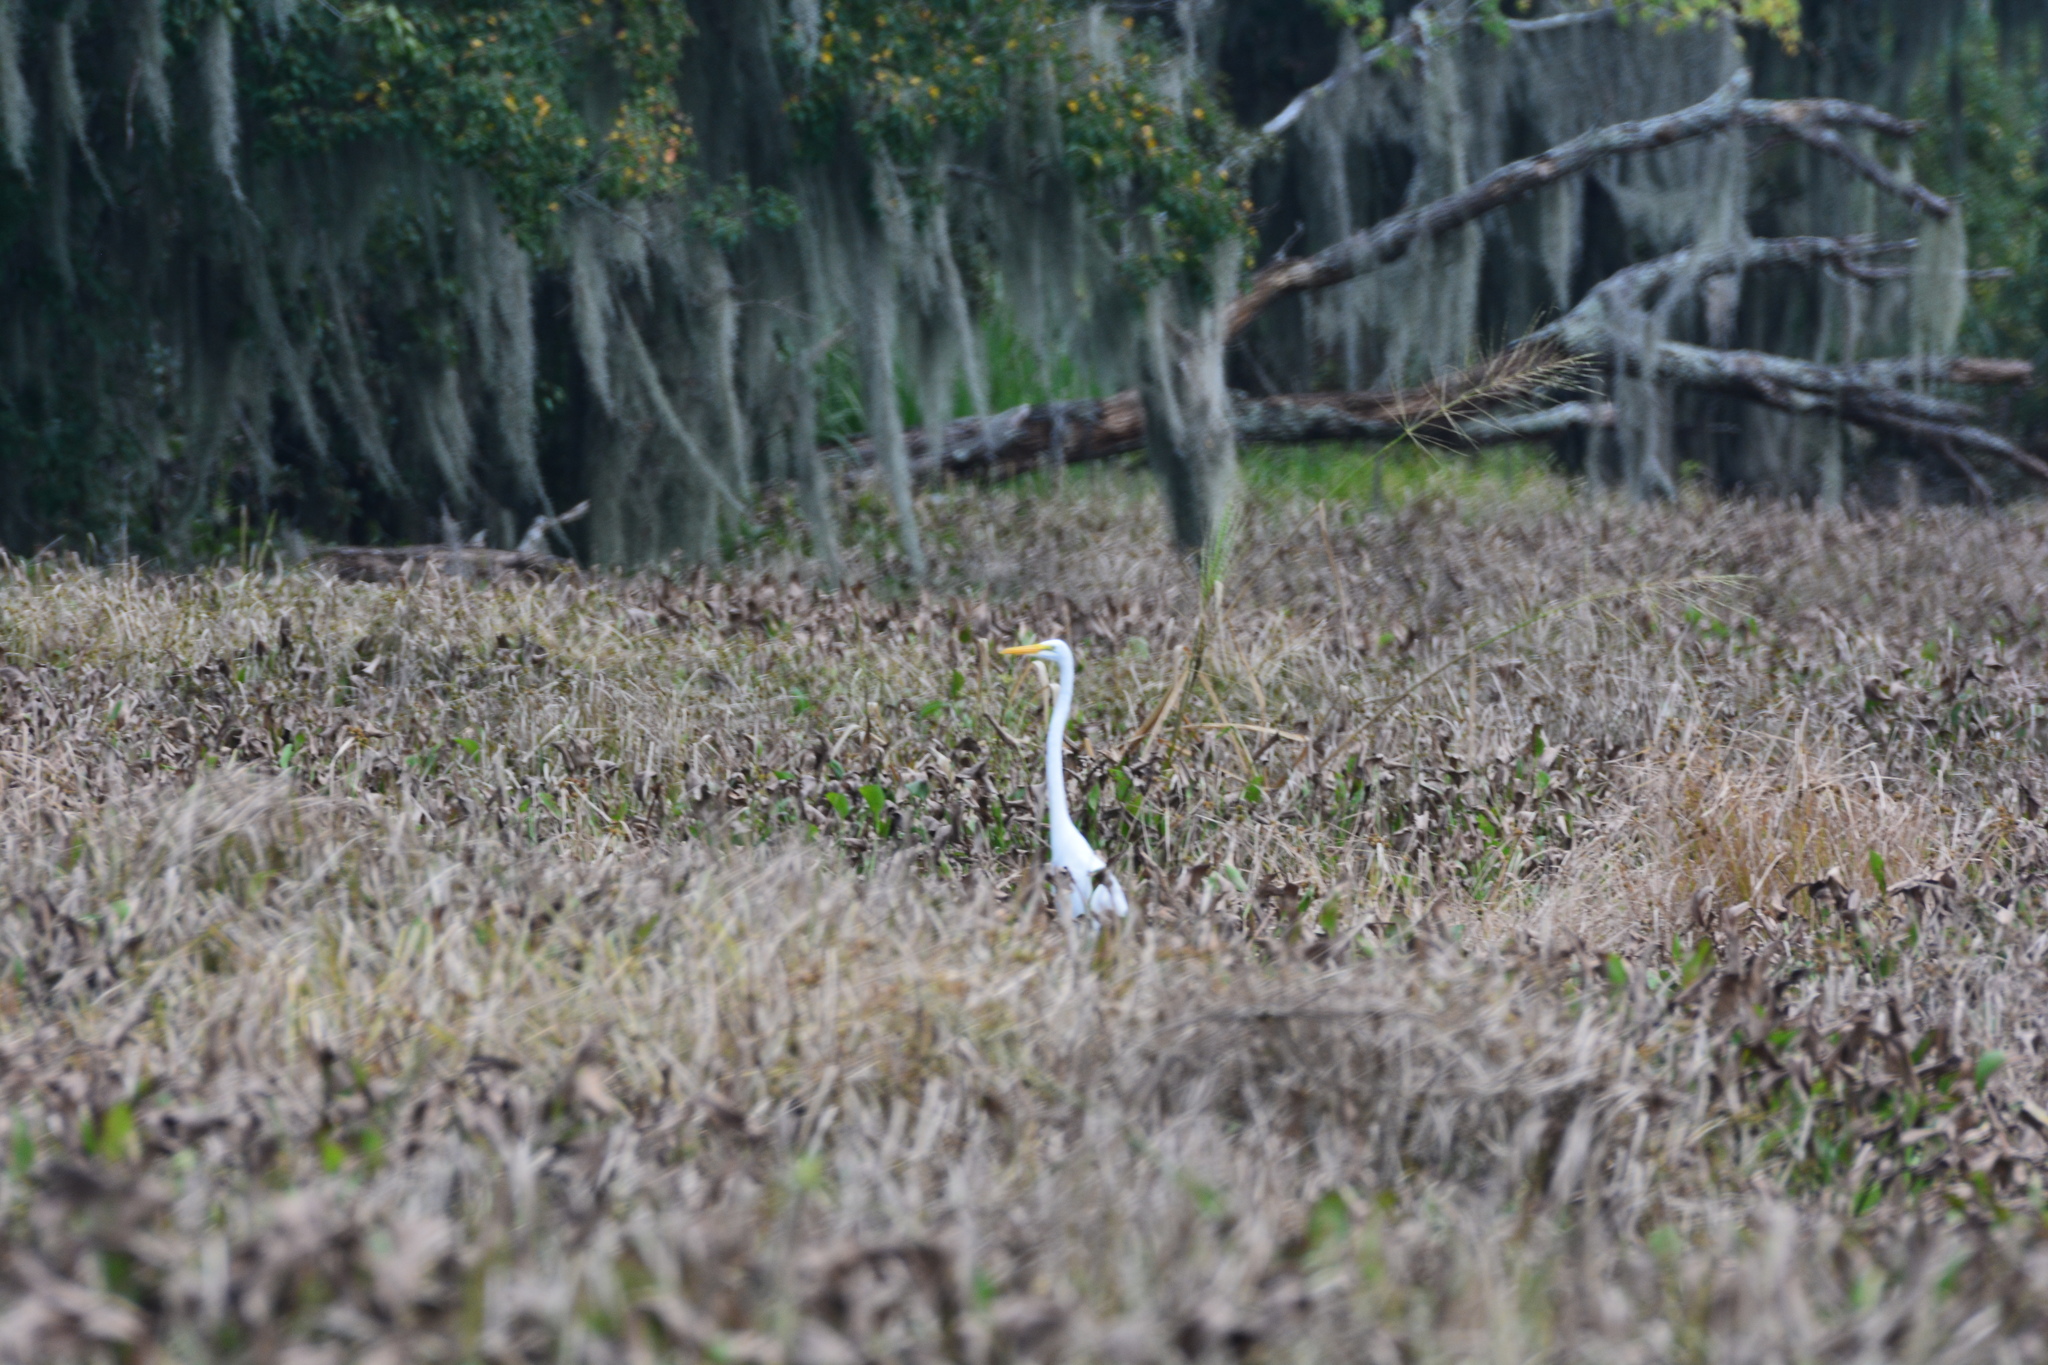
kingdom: Animalia
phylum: Chordata
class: Aves
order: Pelecaniformes
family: Ardeidae
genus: Ardea
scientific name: Ardea alba
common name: Great egret
